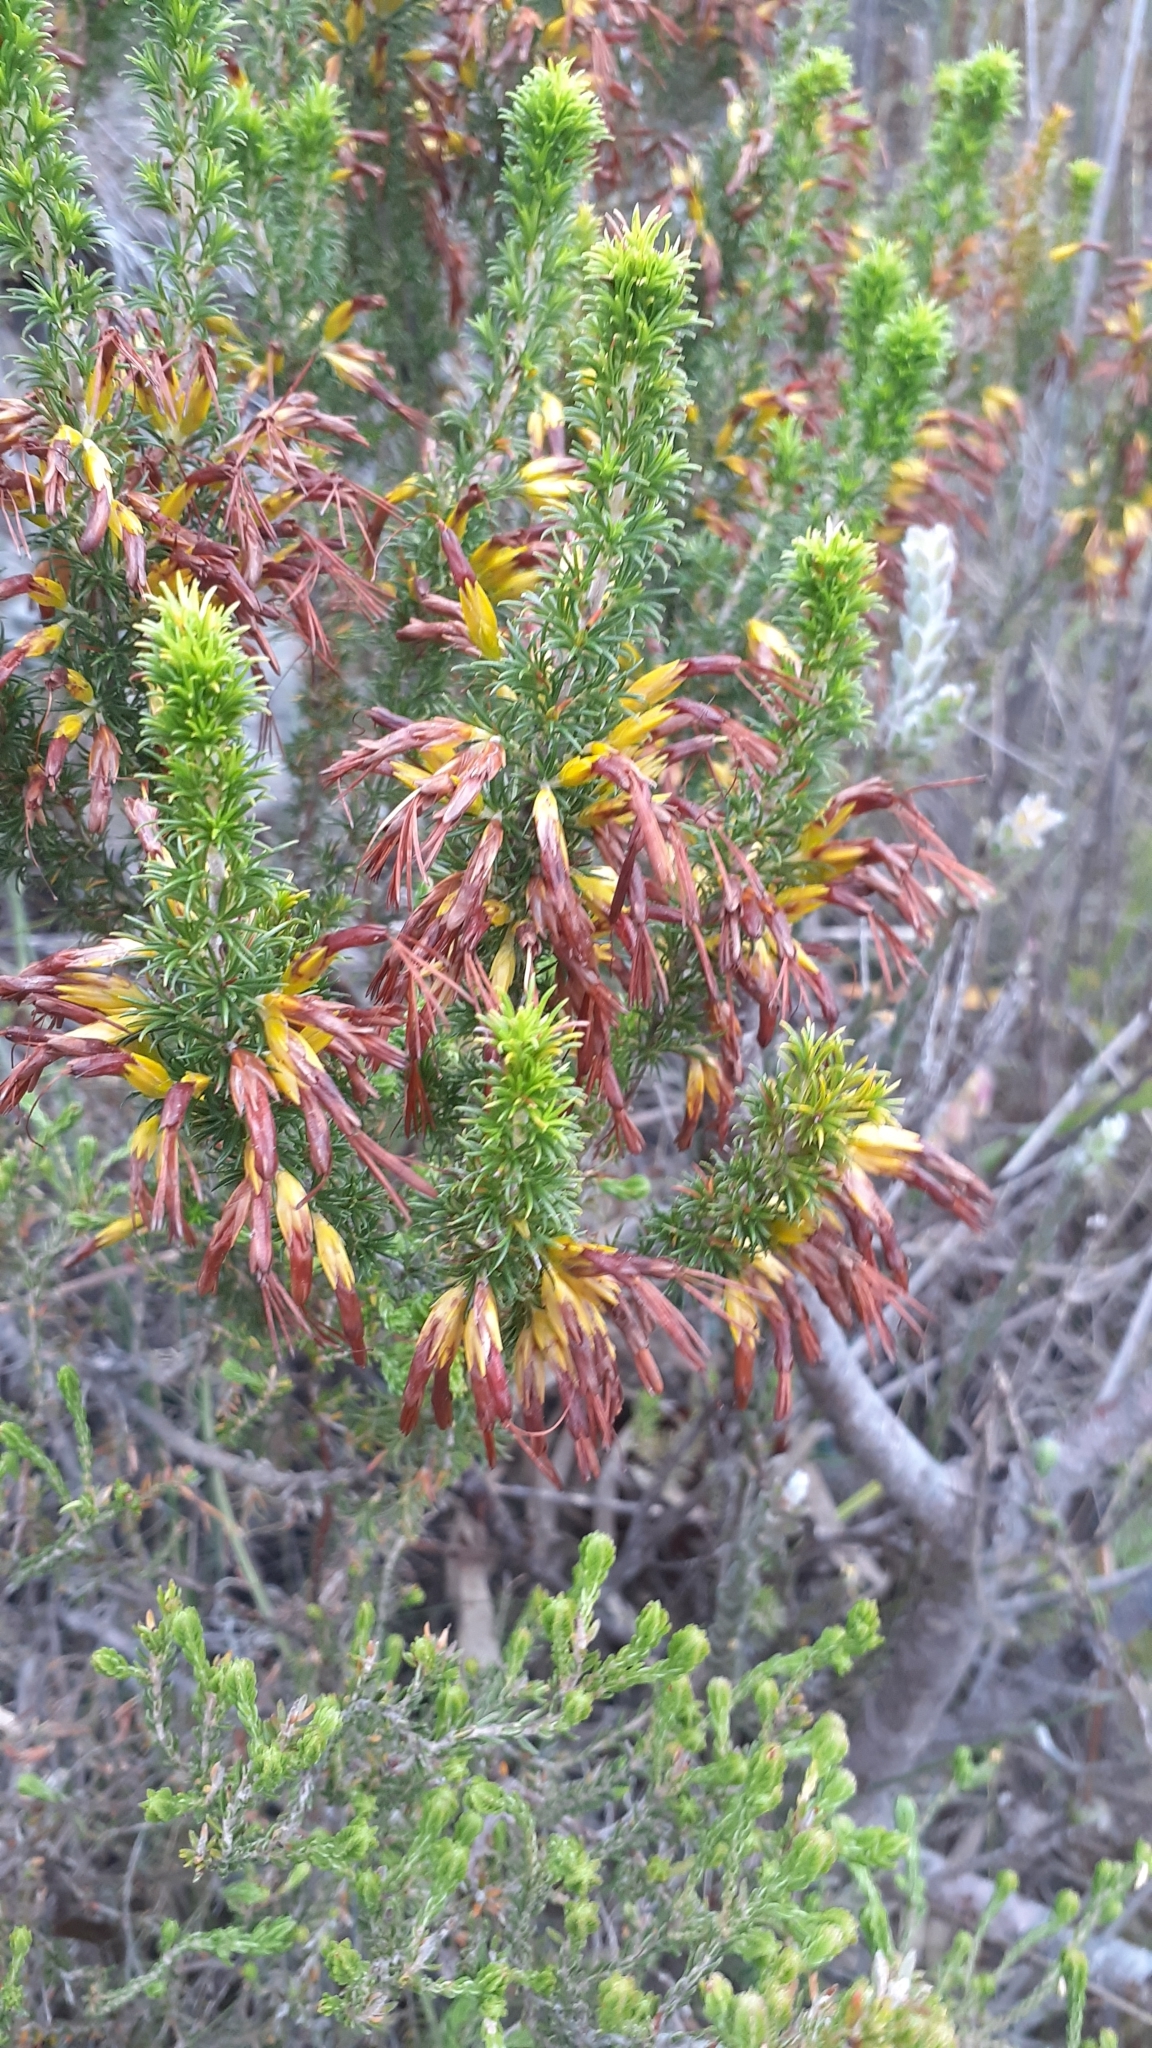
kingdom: Plantae
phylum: Tracheophyta
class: Magnoliopsida
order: Ericales
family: Ericaceae
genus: Erica
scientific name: Erica coccinea
